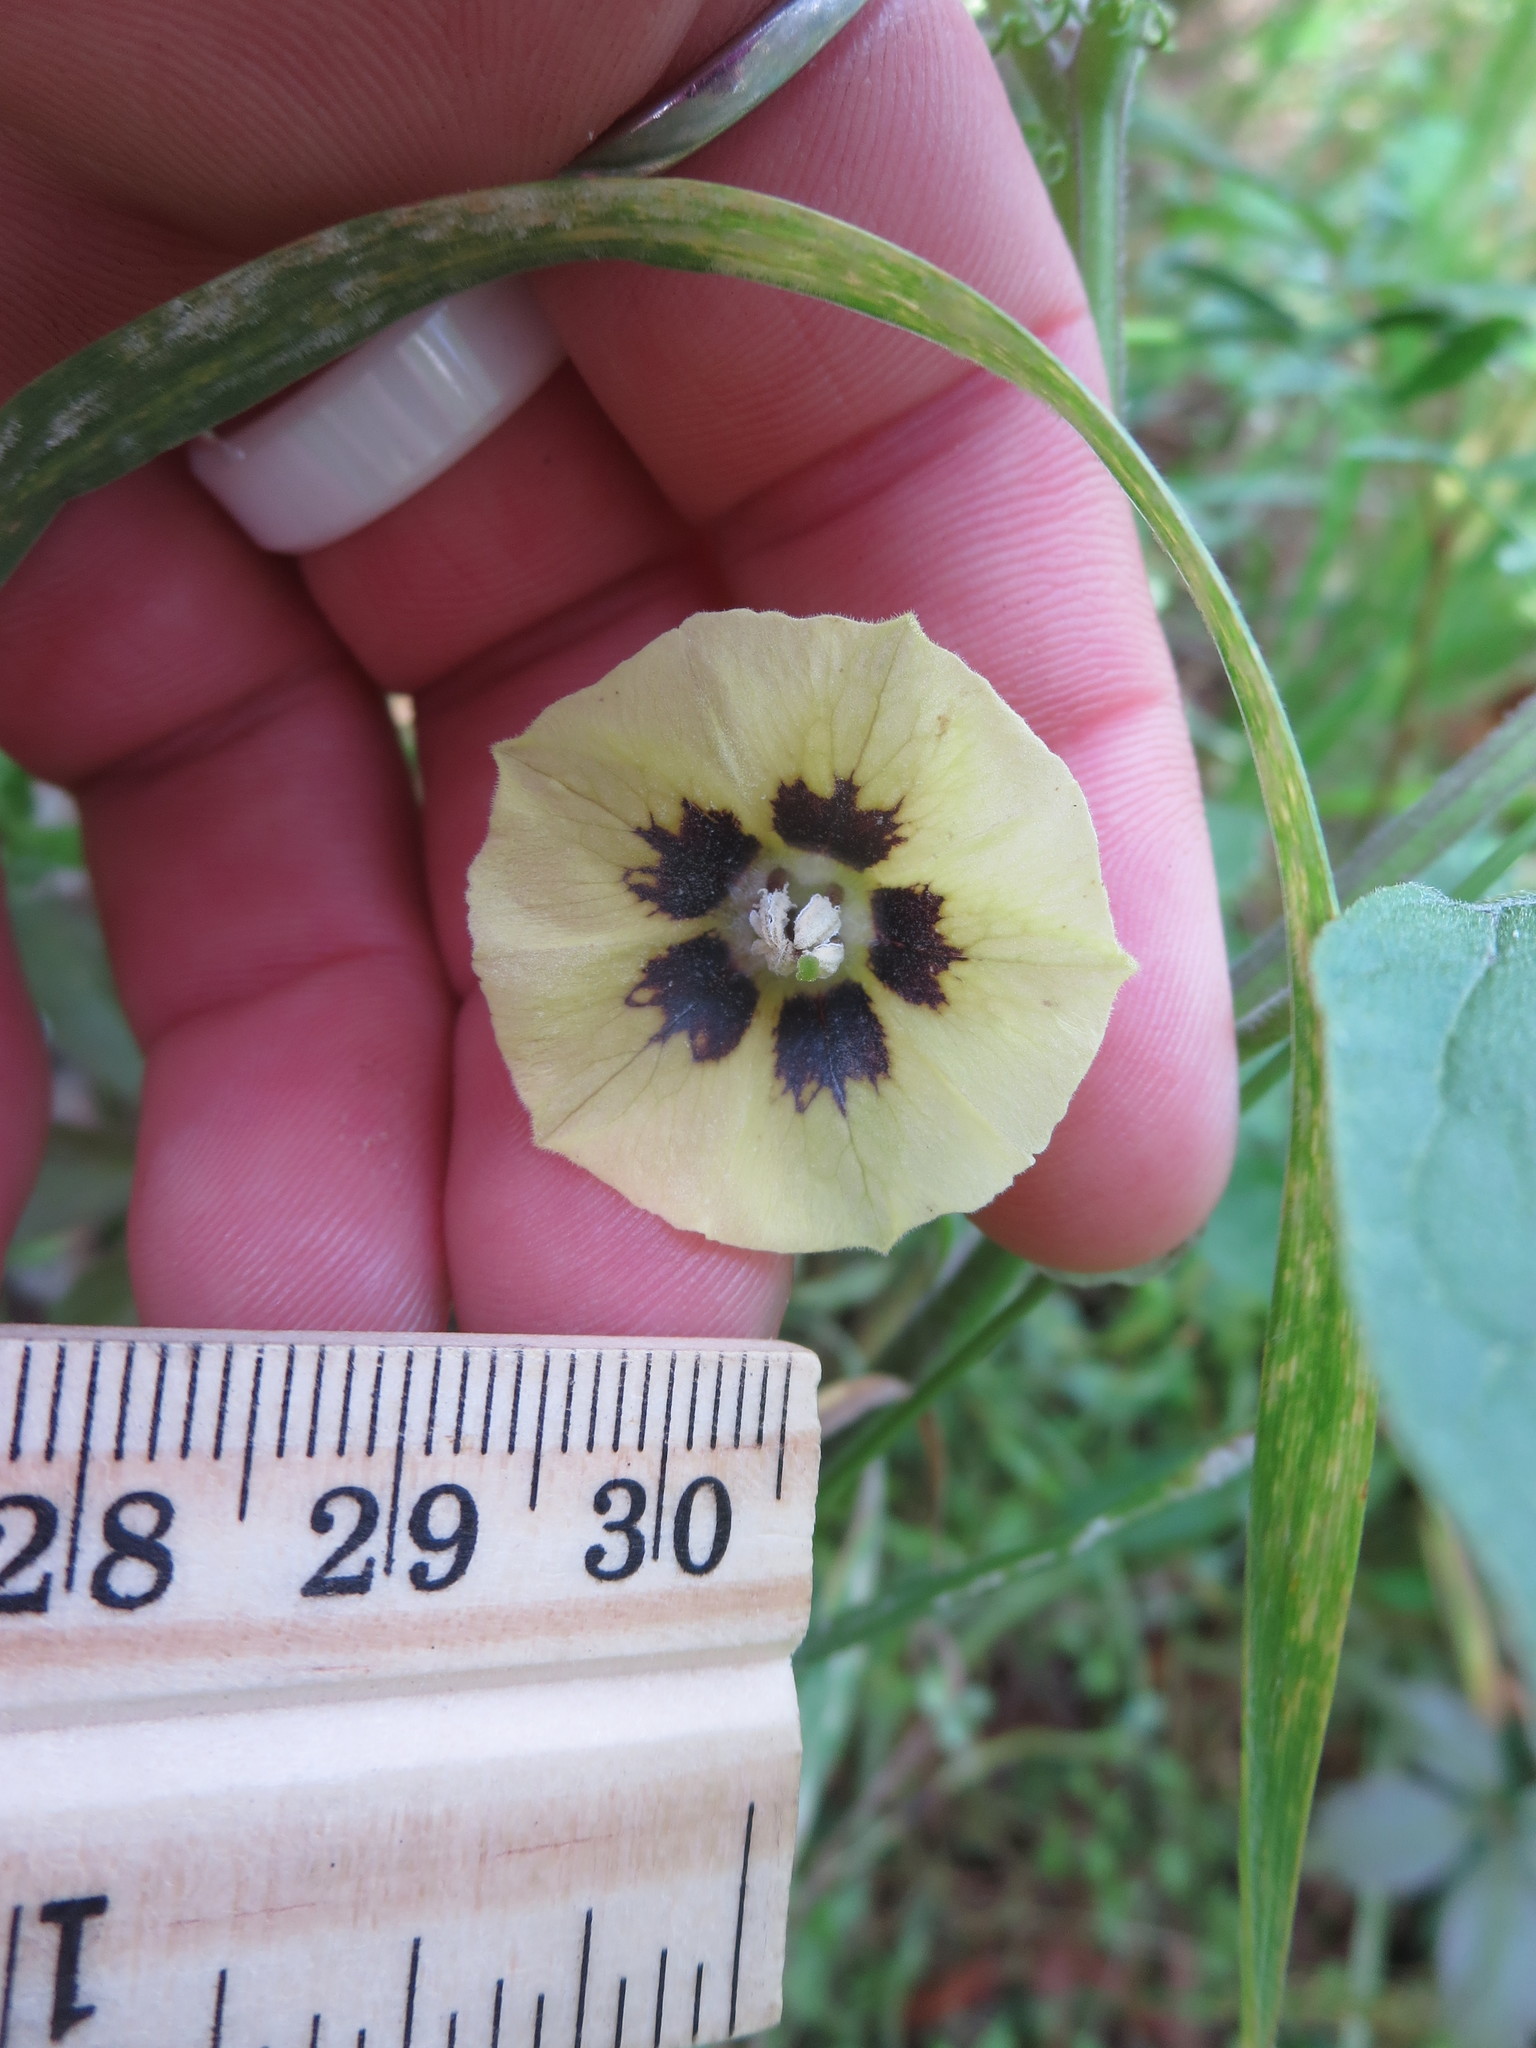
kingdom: Plantae
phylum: Tracheophyta
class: Magnoliopsida
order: Solanales
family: Solanaceae
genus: Physalis
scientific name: Physalis walteri
